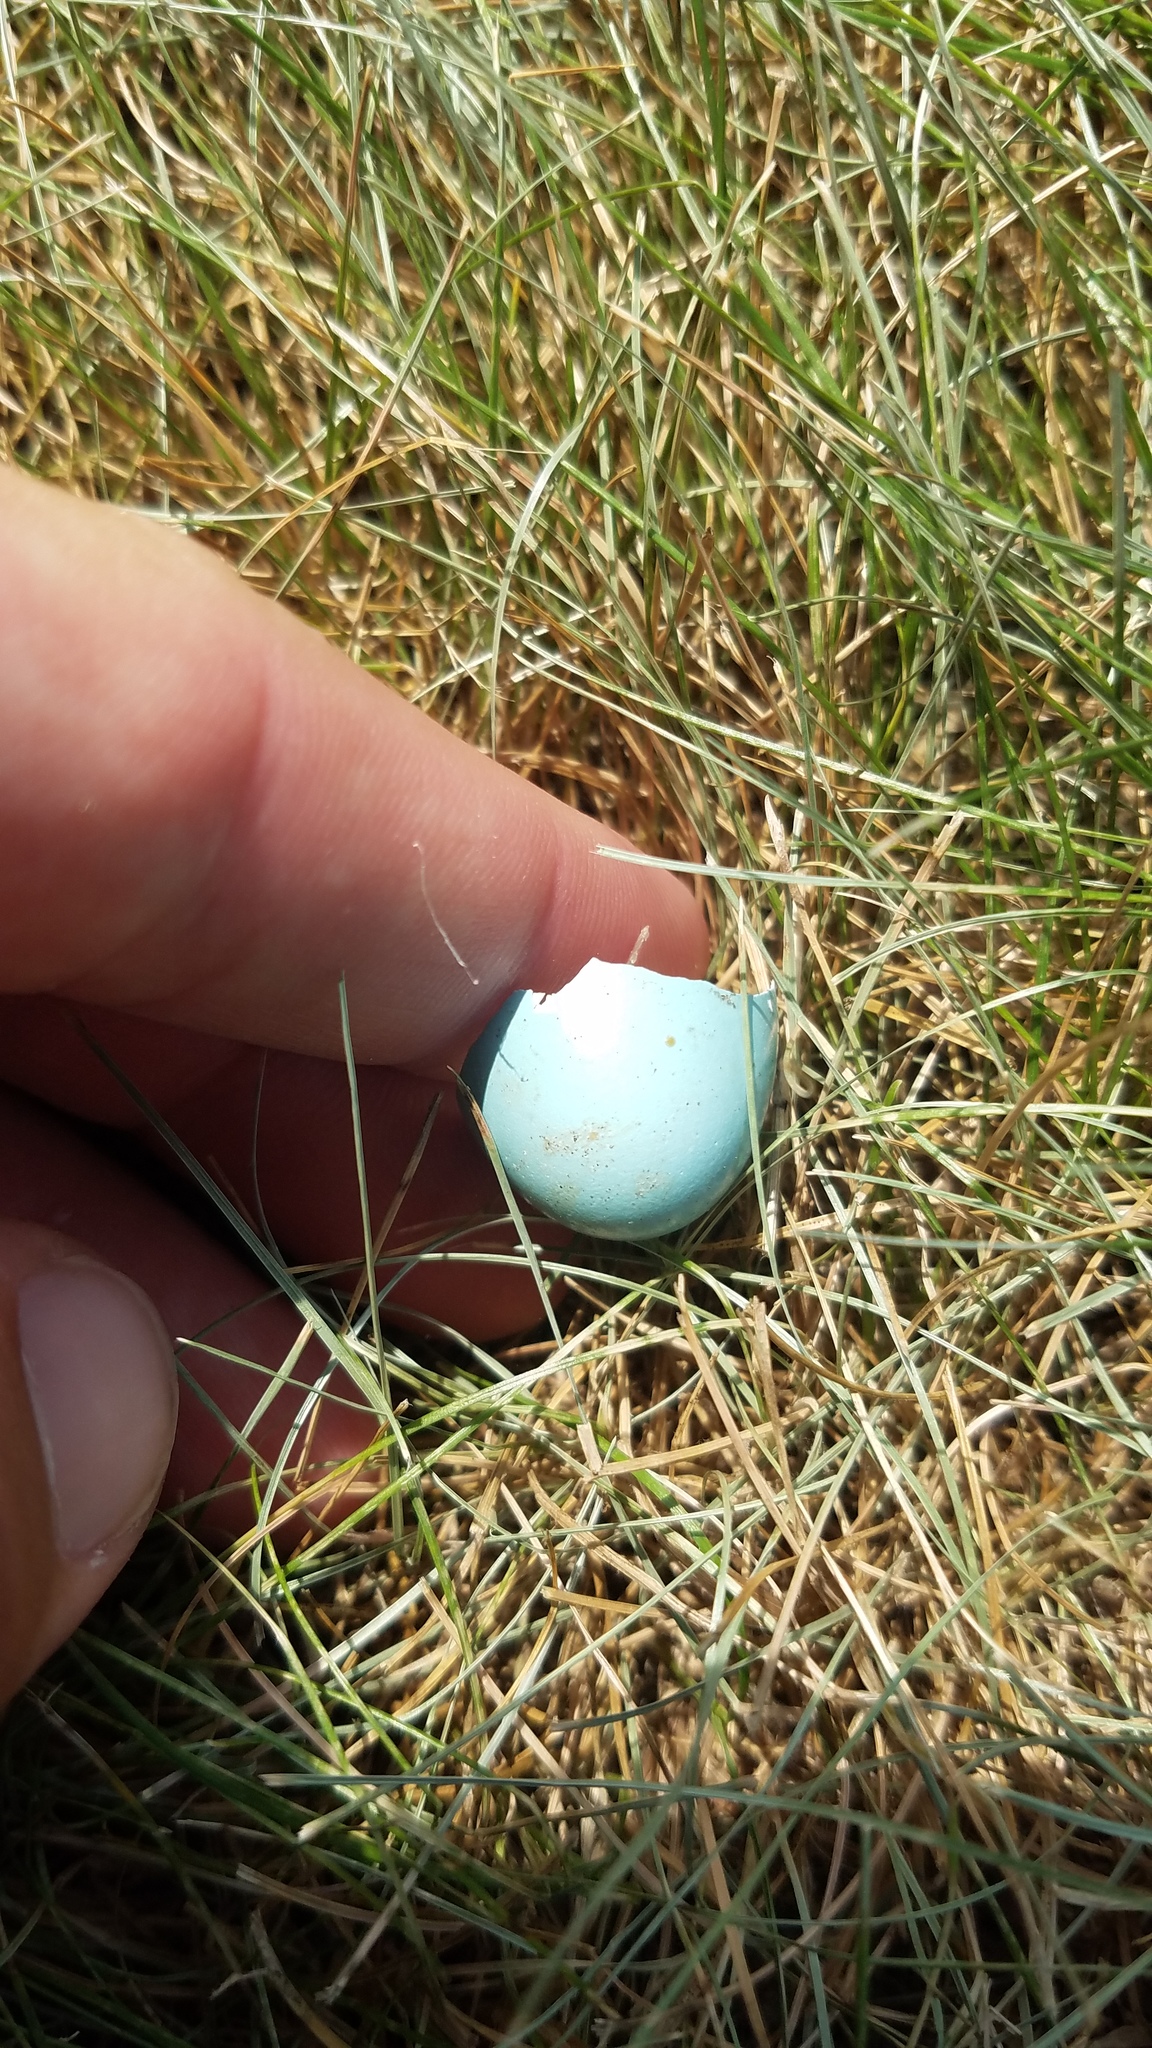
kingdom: Animalia
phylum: Chordata
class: Aves
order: Passeriformes
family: Turdidae
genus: Turdus
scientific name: Turdus migratorius
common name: American robin
